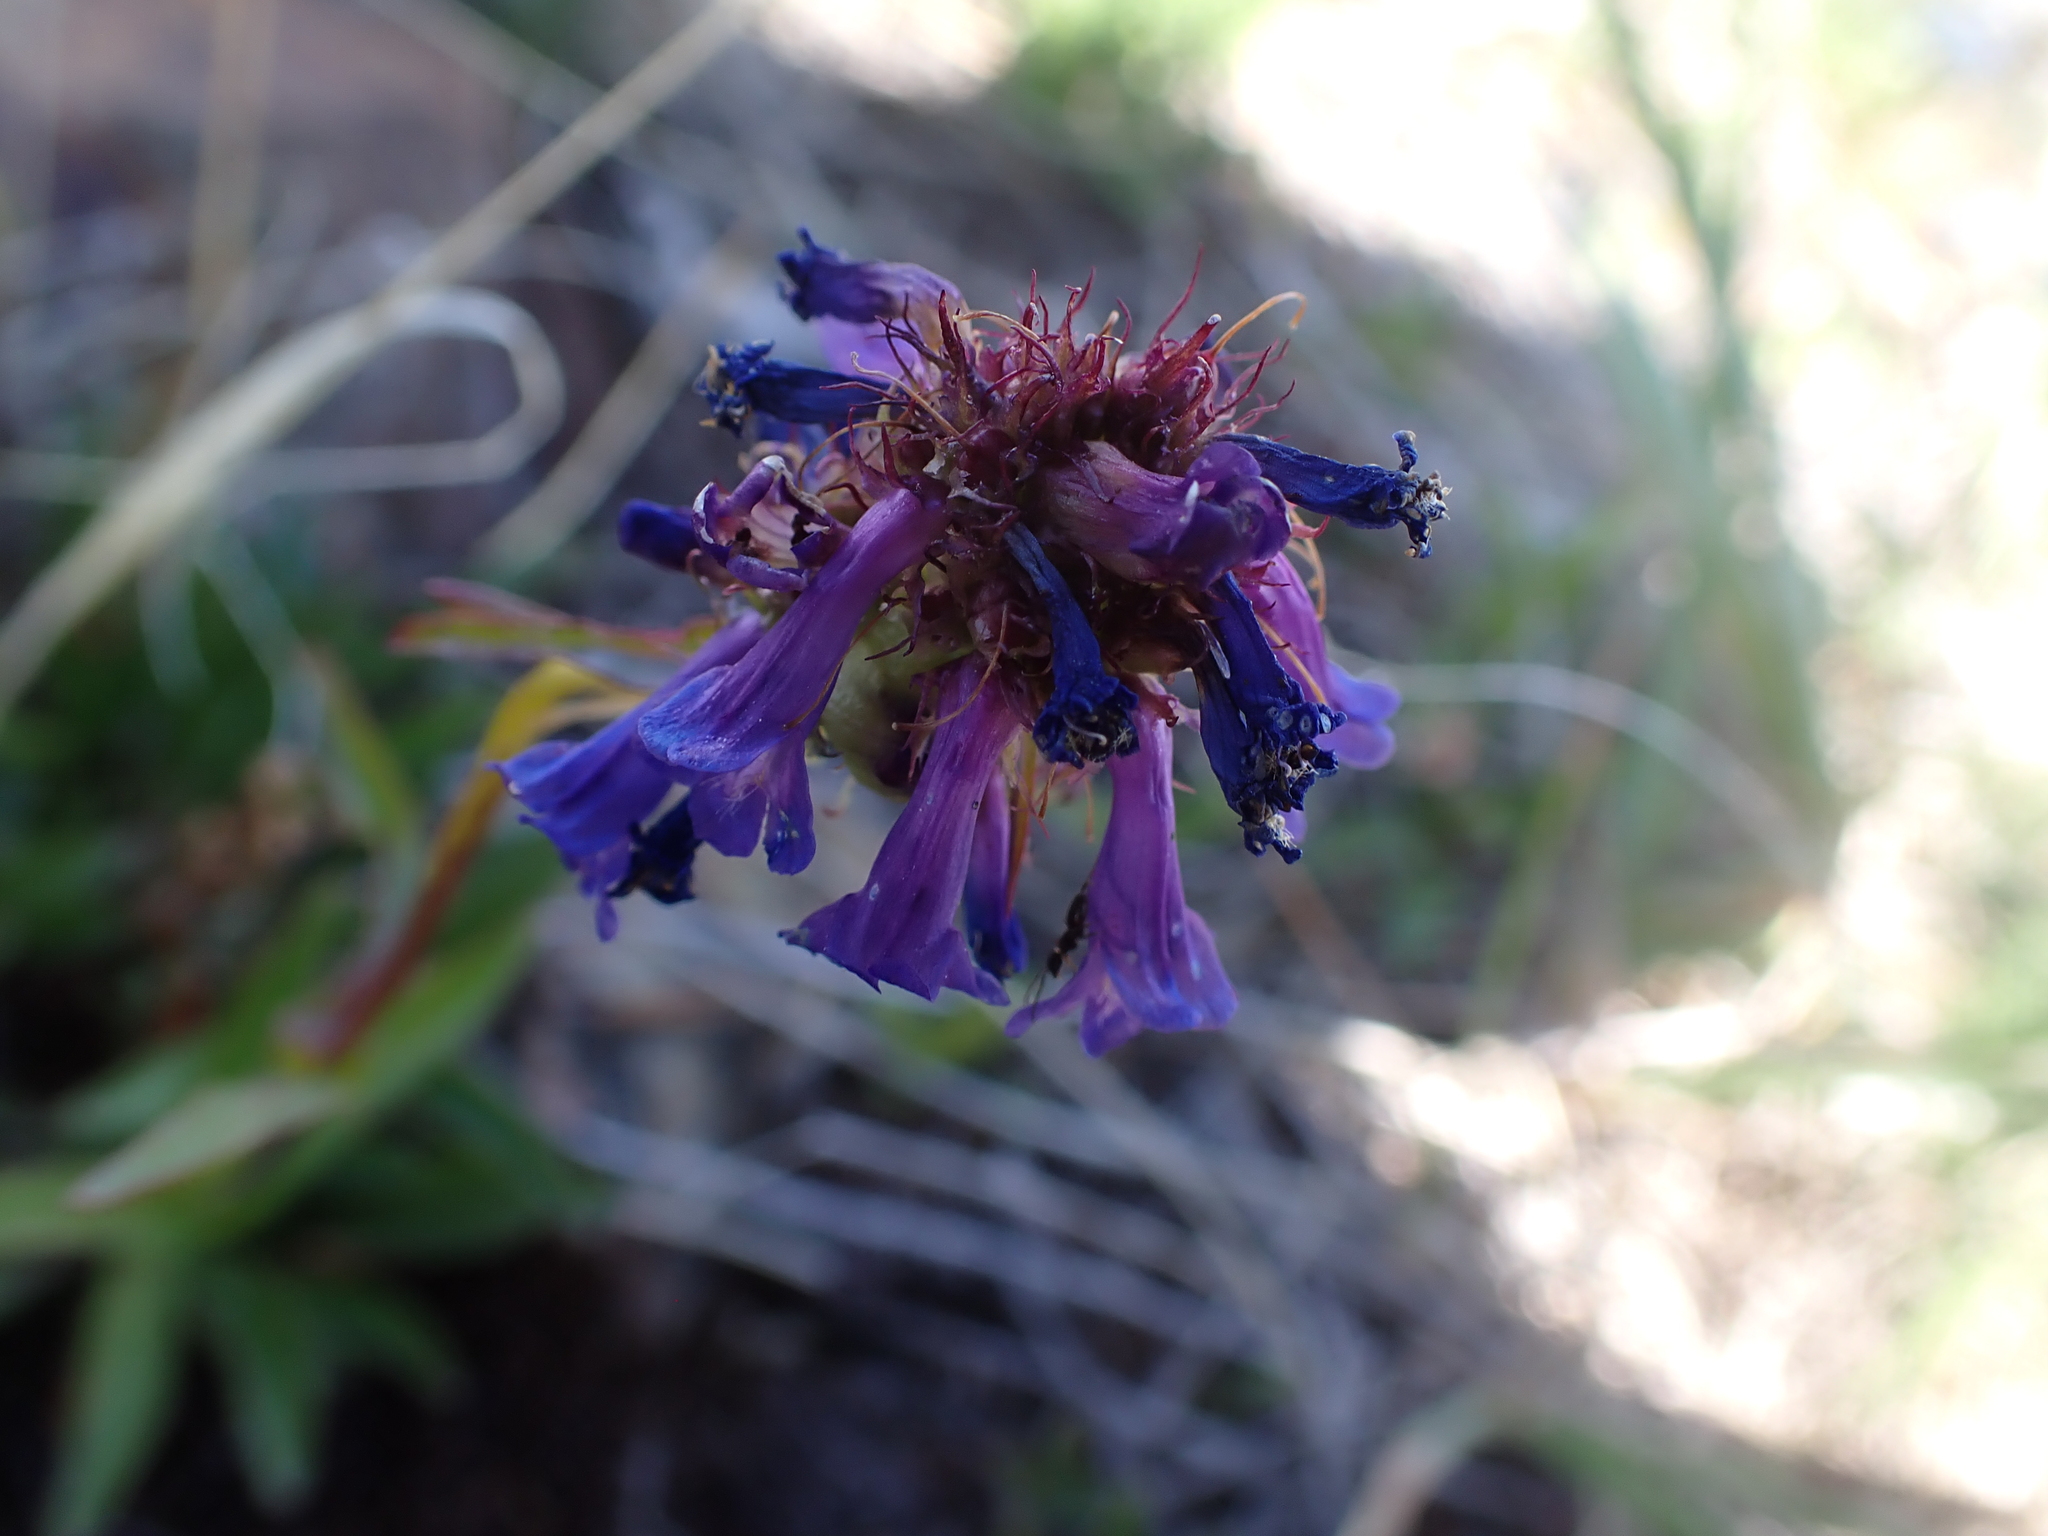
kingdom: Plantae
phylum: Tracheophyta
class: Magnoliopsida
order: Lamiales
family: Plantaginaceae
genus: Penstemon
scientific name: Penstemon procerus
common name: Small-flower penstemon
